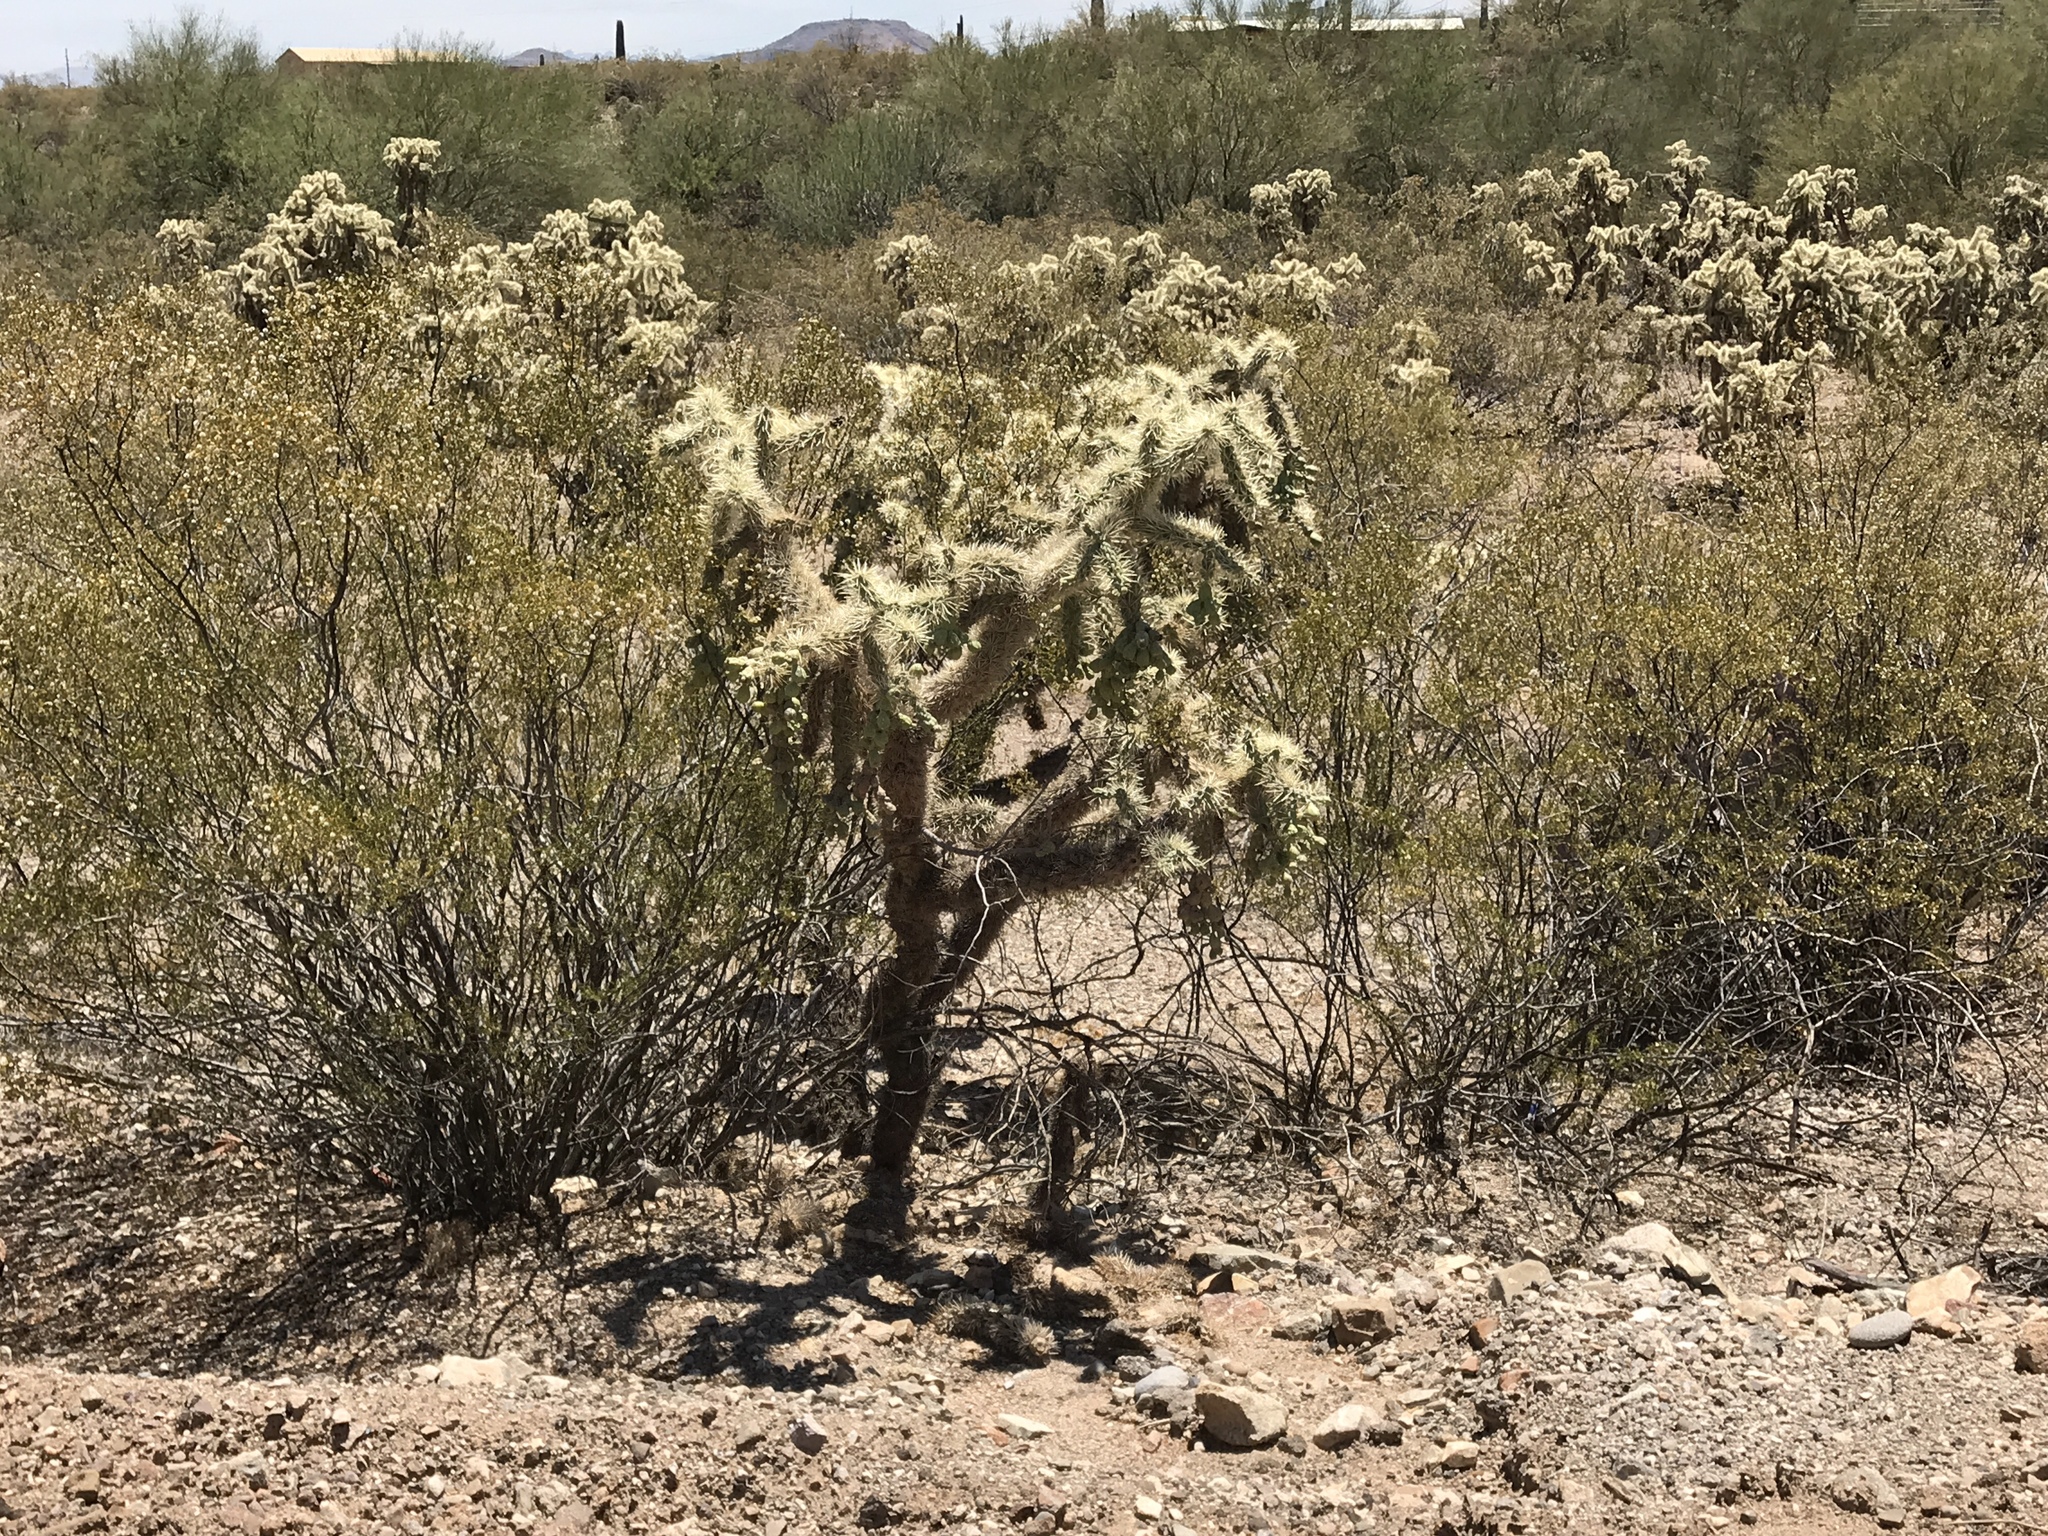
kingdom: Plantae
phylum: Tracheophyta
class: Magnoliopsida
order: Caryophyllales
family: Cactaceae
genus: Cylindropuntia
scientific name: Cylindropuntia fulgida
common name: Jumping cholla
